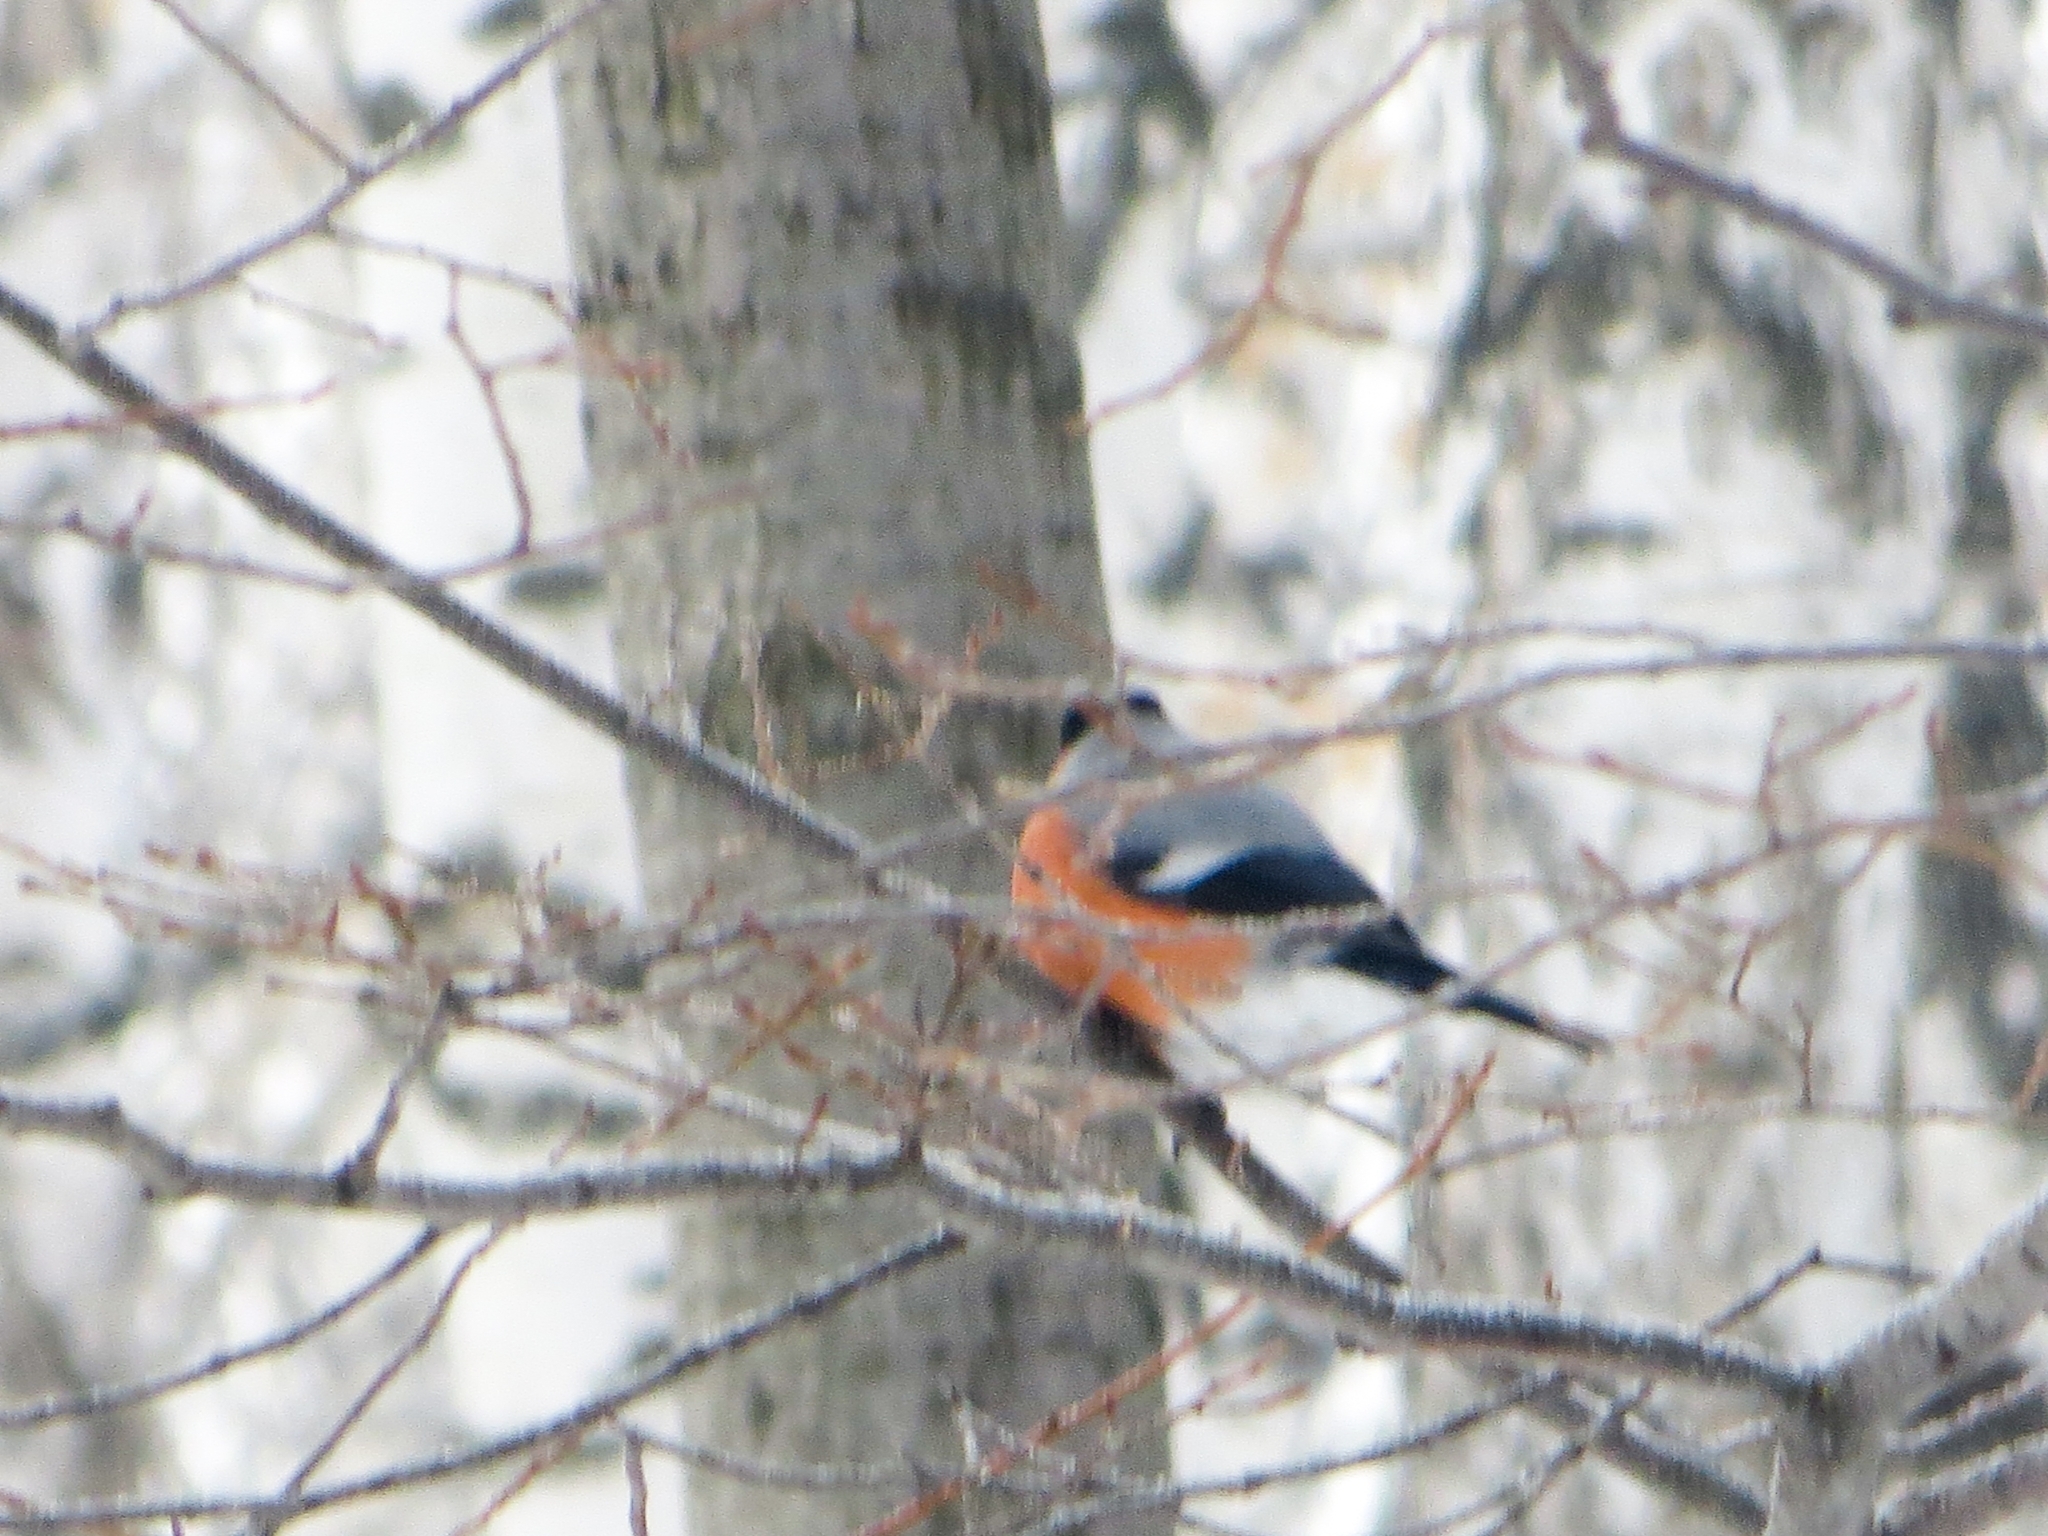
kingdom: Animalia
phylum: Chordata
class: Aves
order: Passeriformes
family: Fringillidae
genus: Pyrrhula
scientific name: Pyrrhula pyrrhula
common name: Eurasian bullfinch
